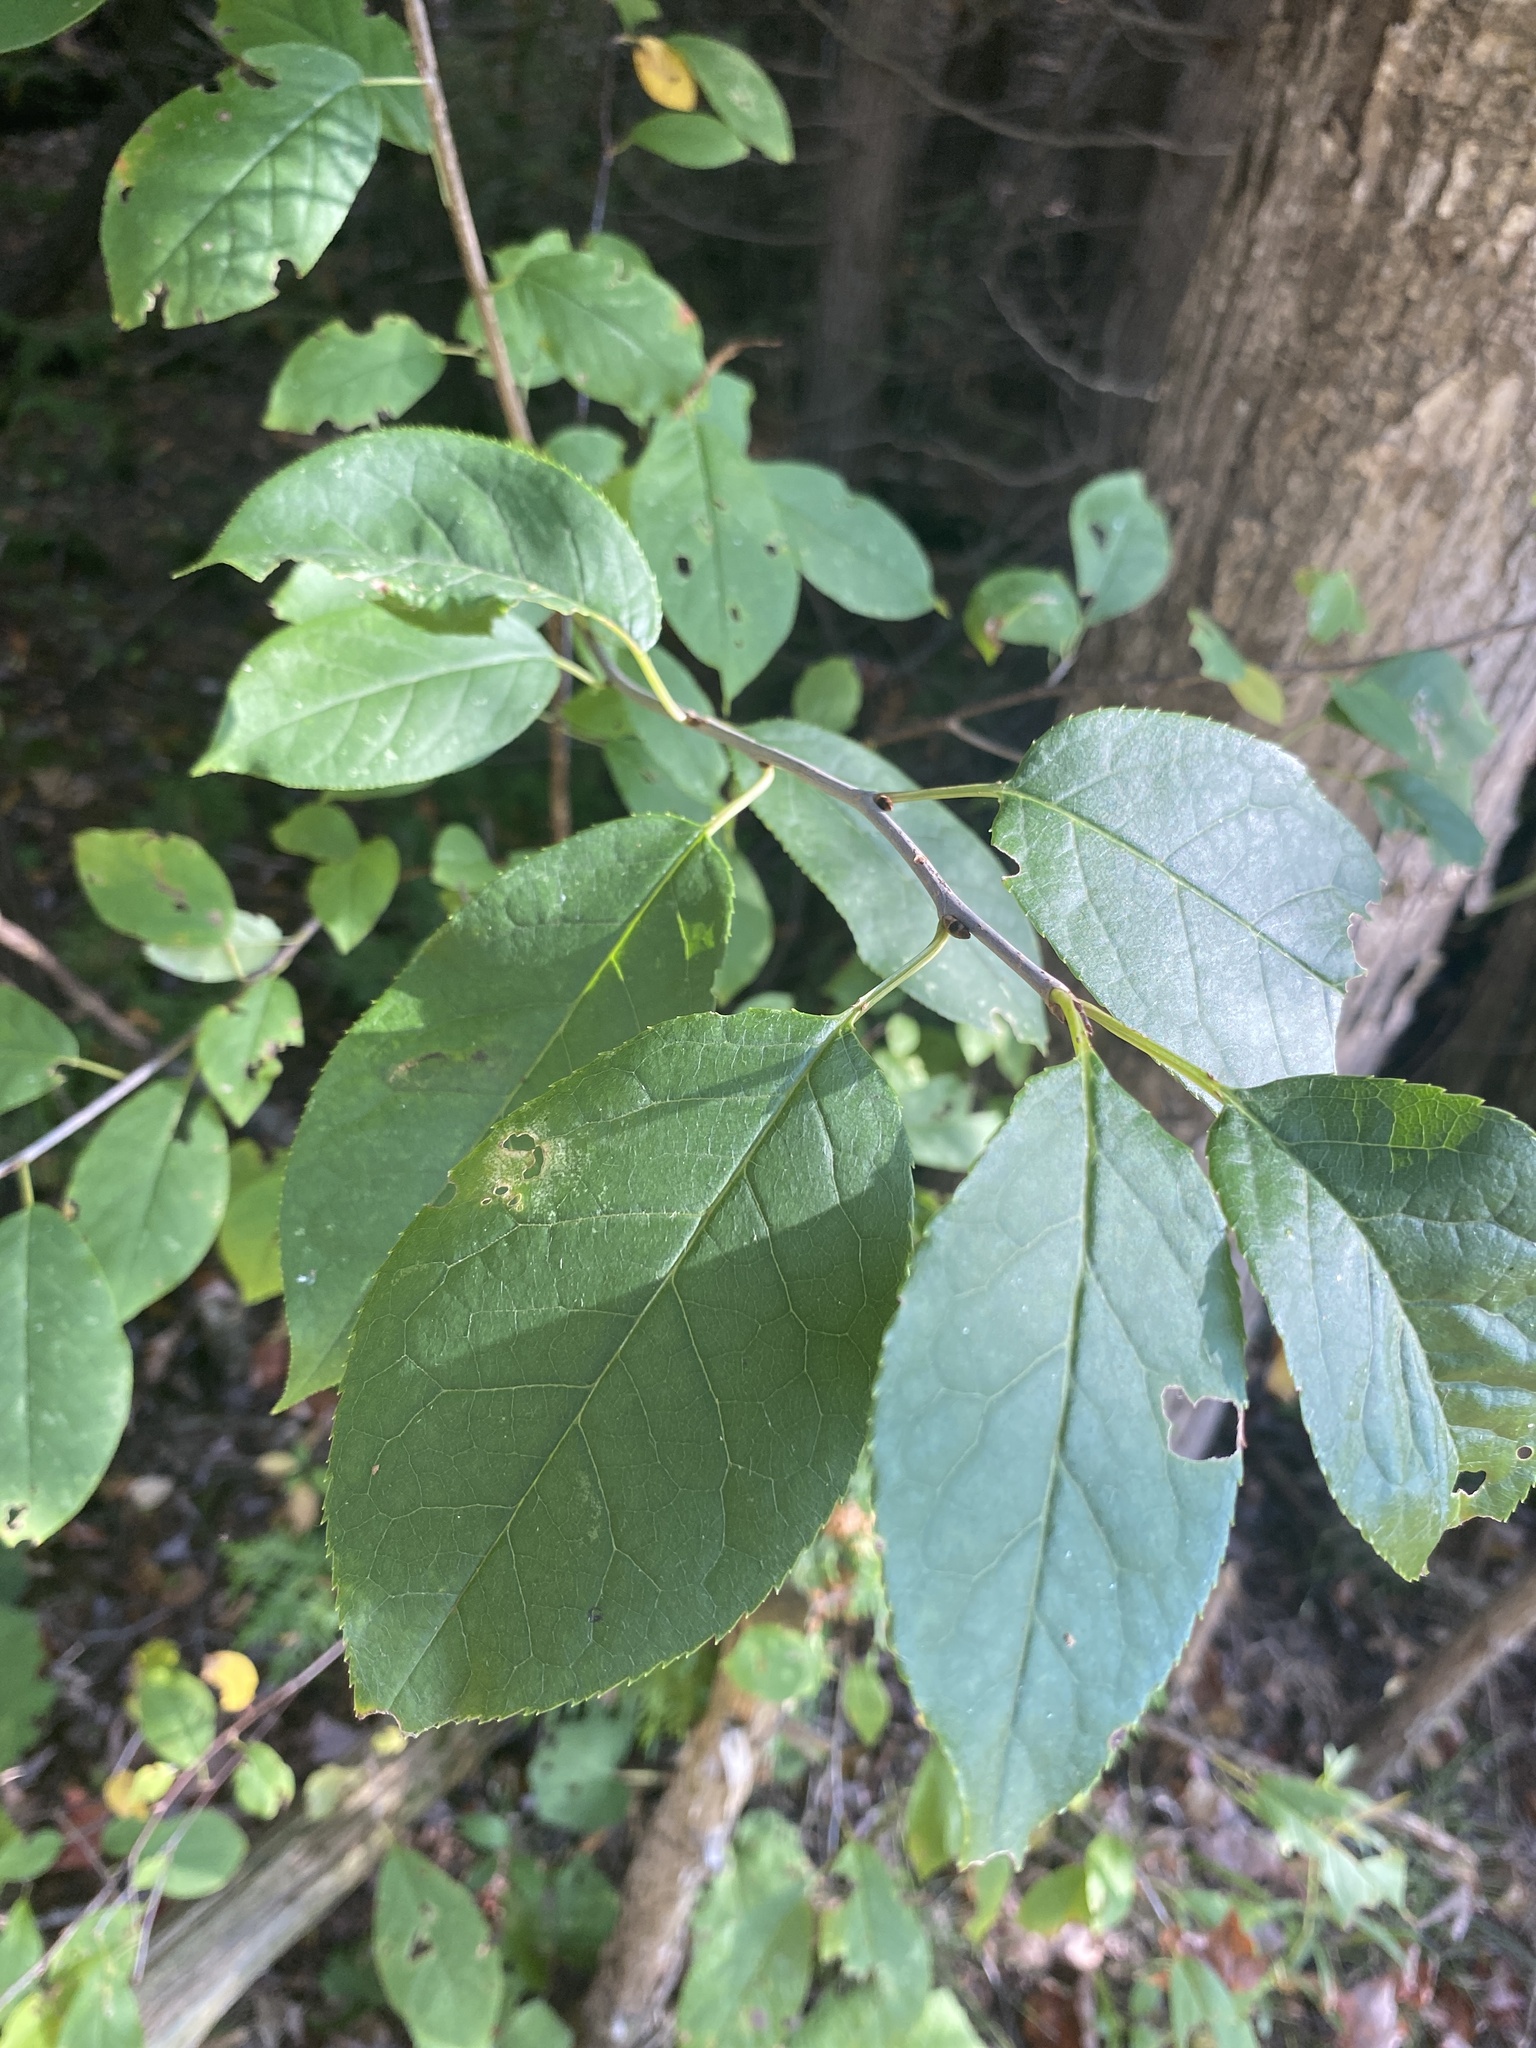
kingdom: Plantae
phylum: Tracheophyta
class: Magnoliopsida
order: Rosales
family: Rosaceae
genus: Prunus
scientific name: Prunus virginiana
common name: Chokecherry
